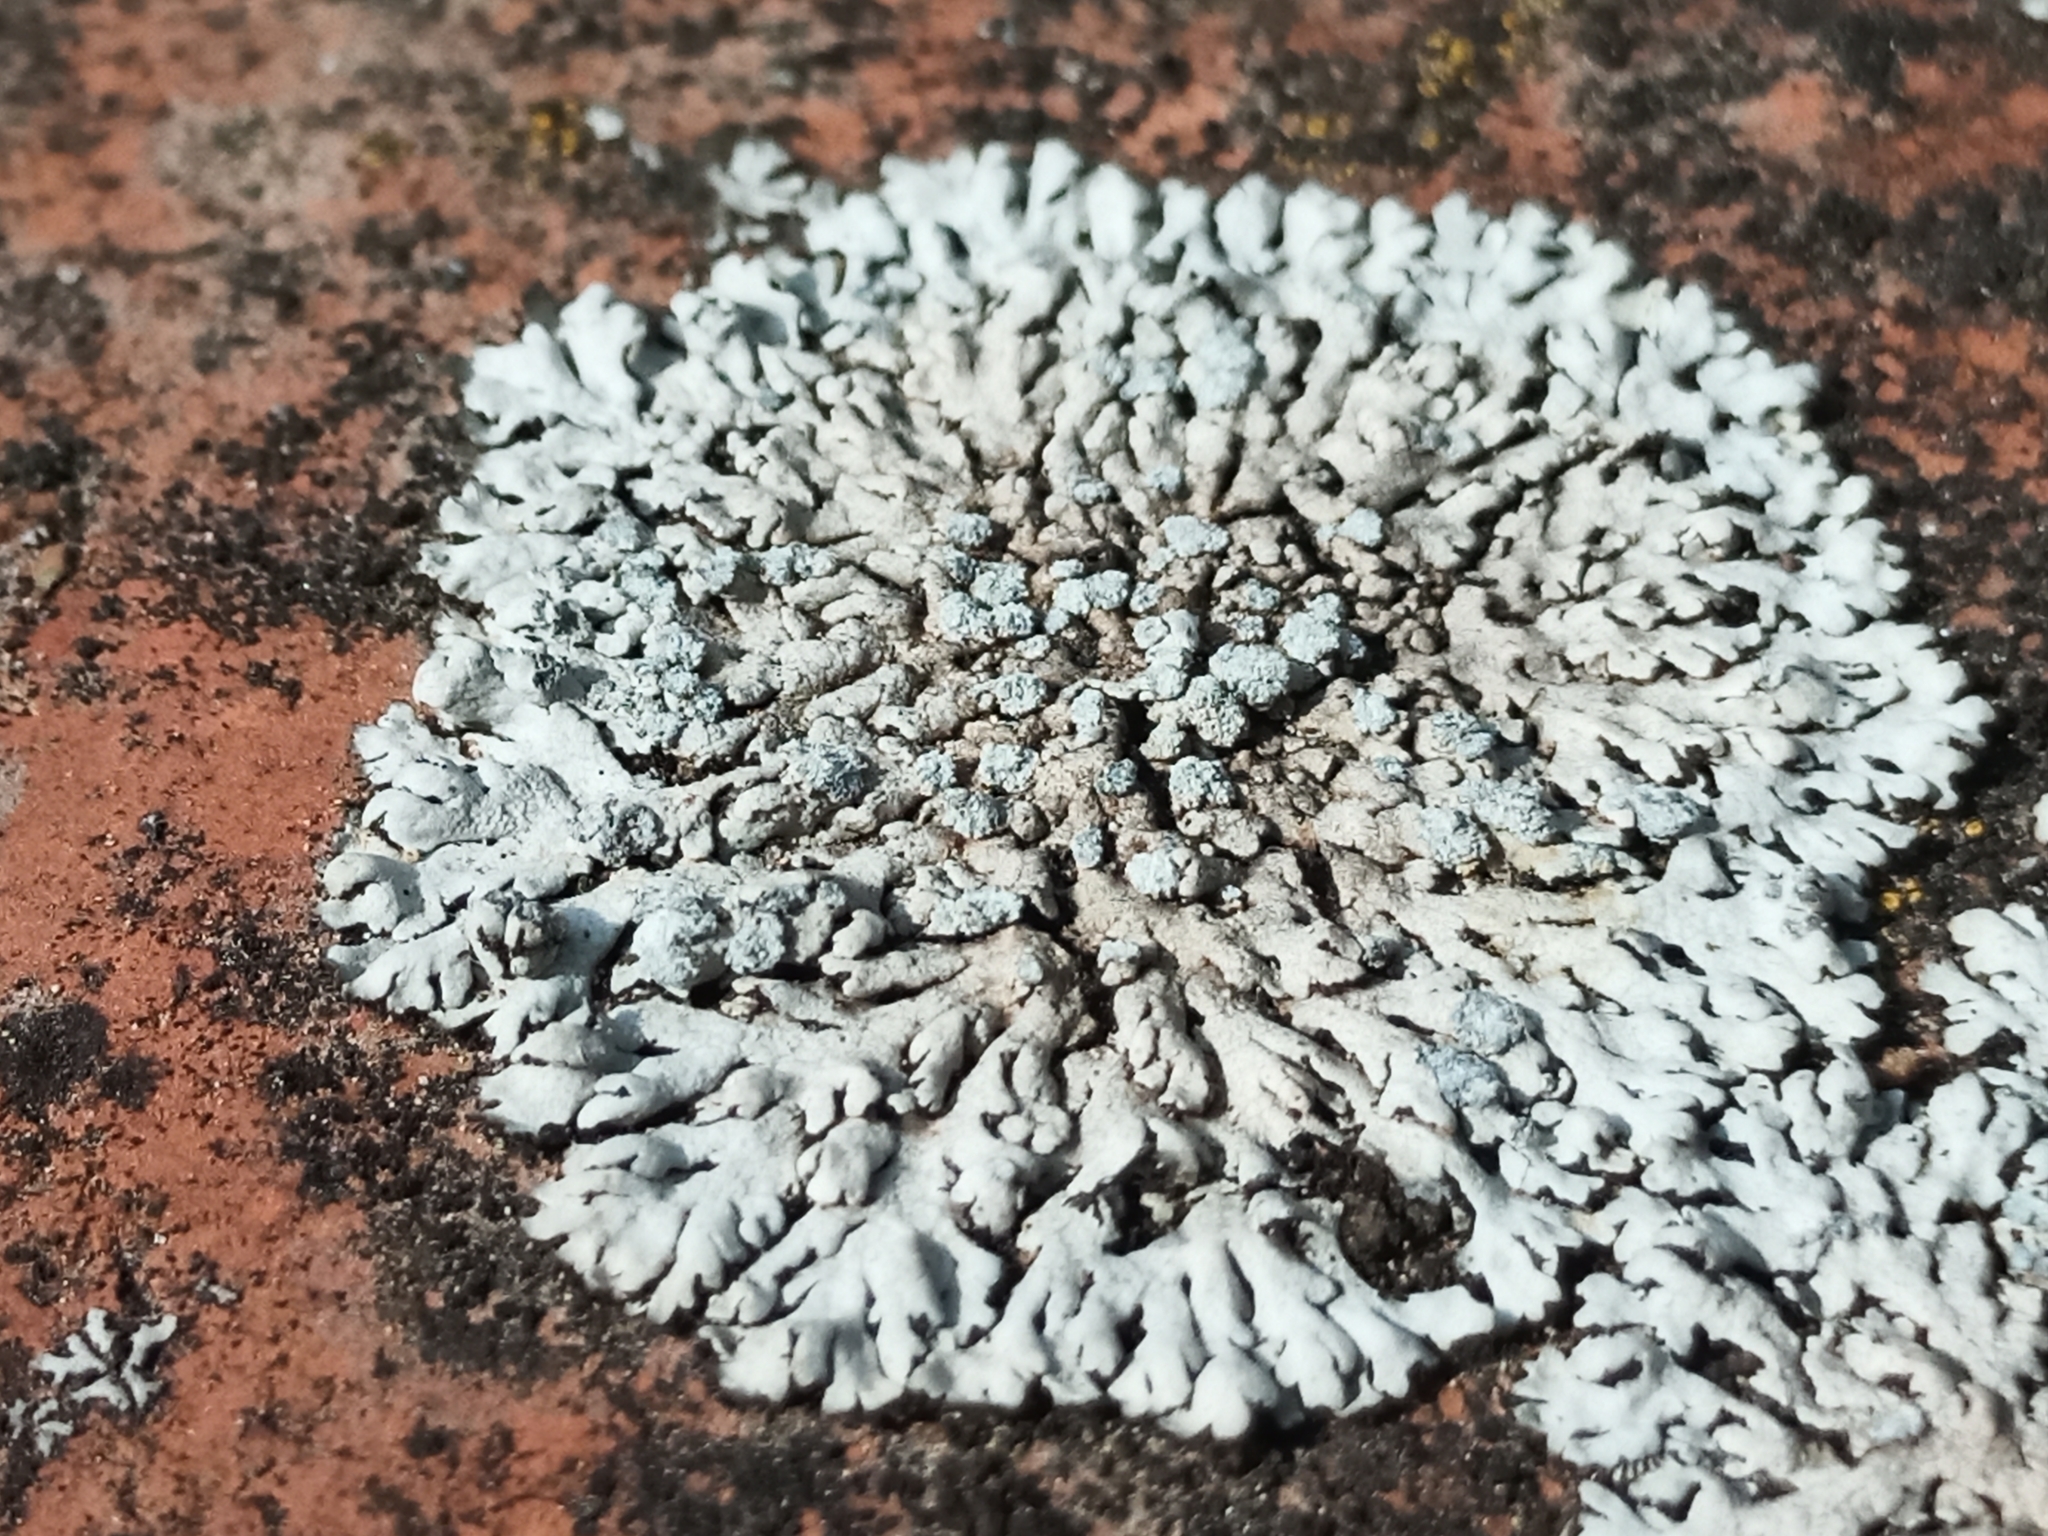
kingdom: Fungi
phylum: Ascomycota
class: Lecanoromycetes
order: Caliciales
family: Physciaceae
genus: Physcia
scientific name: Physcia caesia
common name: Blue-gray rosette lichen
